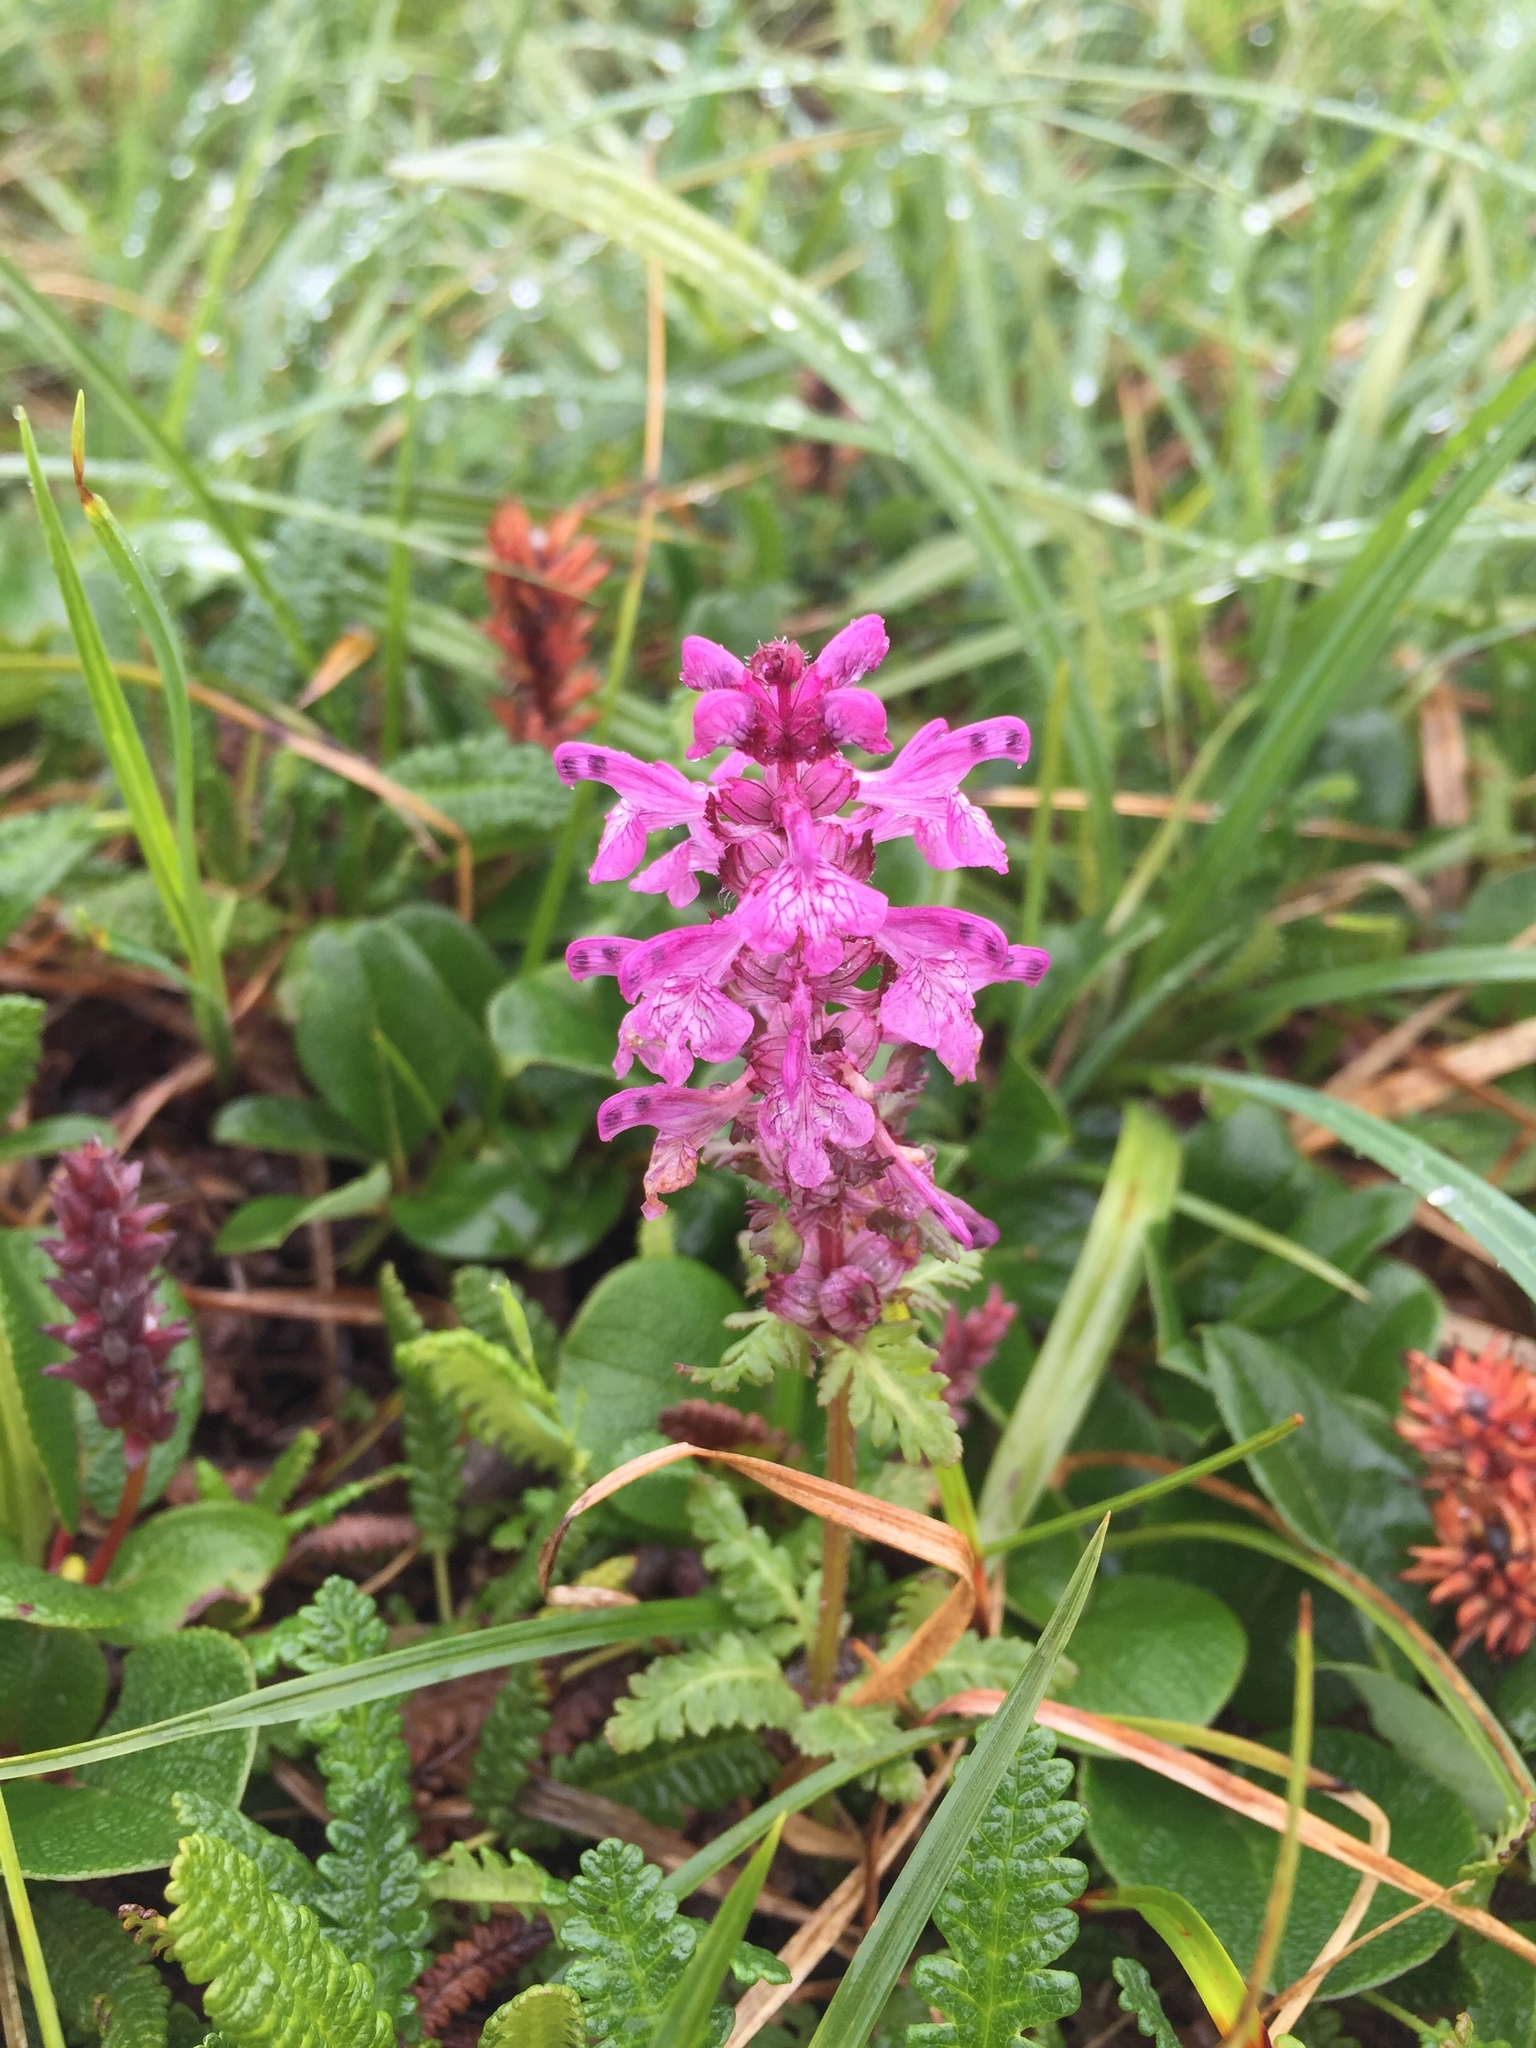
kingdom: Plantae
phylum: Tracheophyta
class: Magnoliopsida
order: Lamiales
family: Orobanchaceae
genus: Pedicularis
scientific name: Pedicularis verticillata
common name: Whorled lousewort
